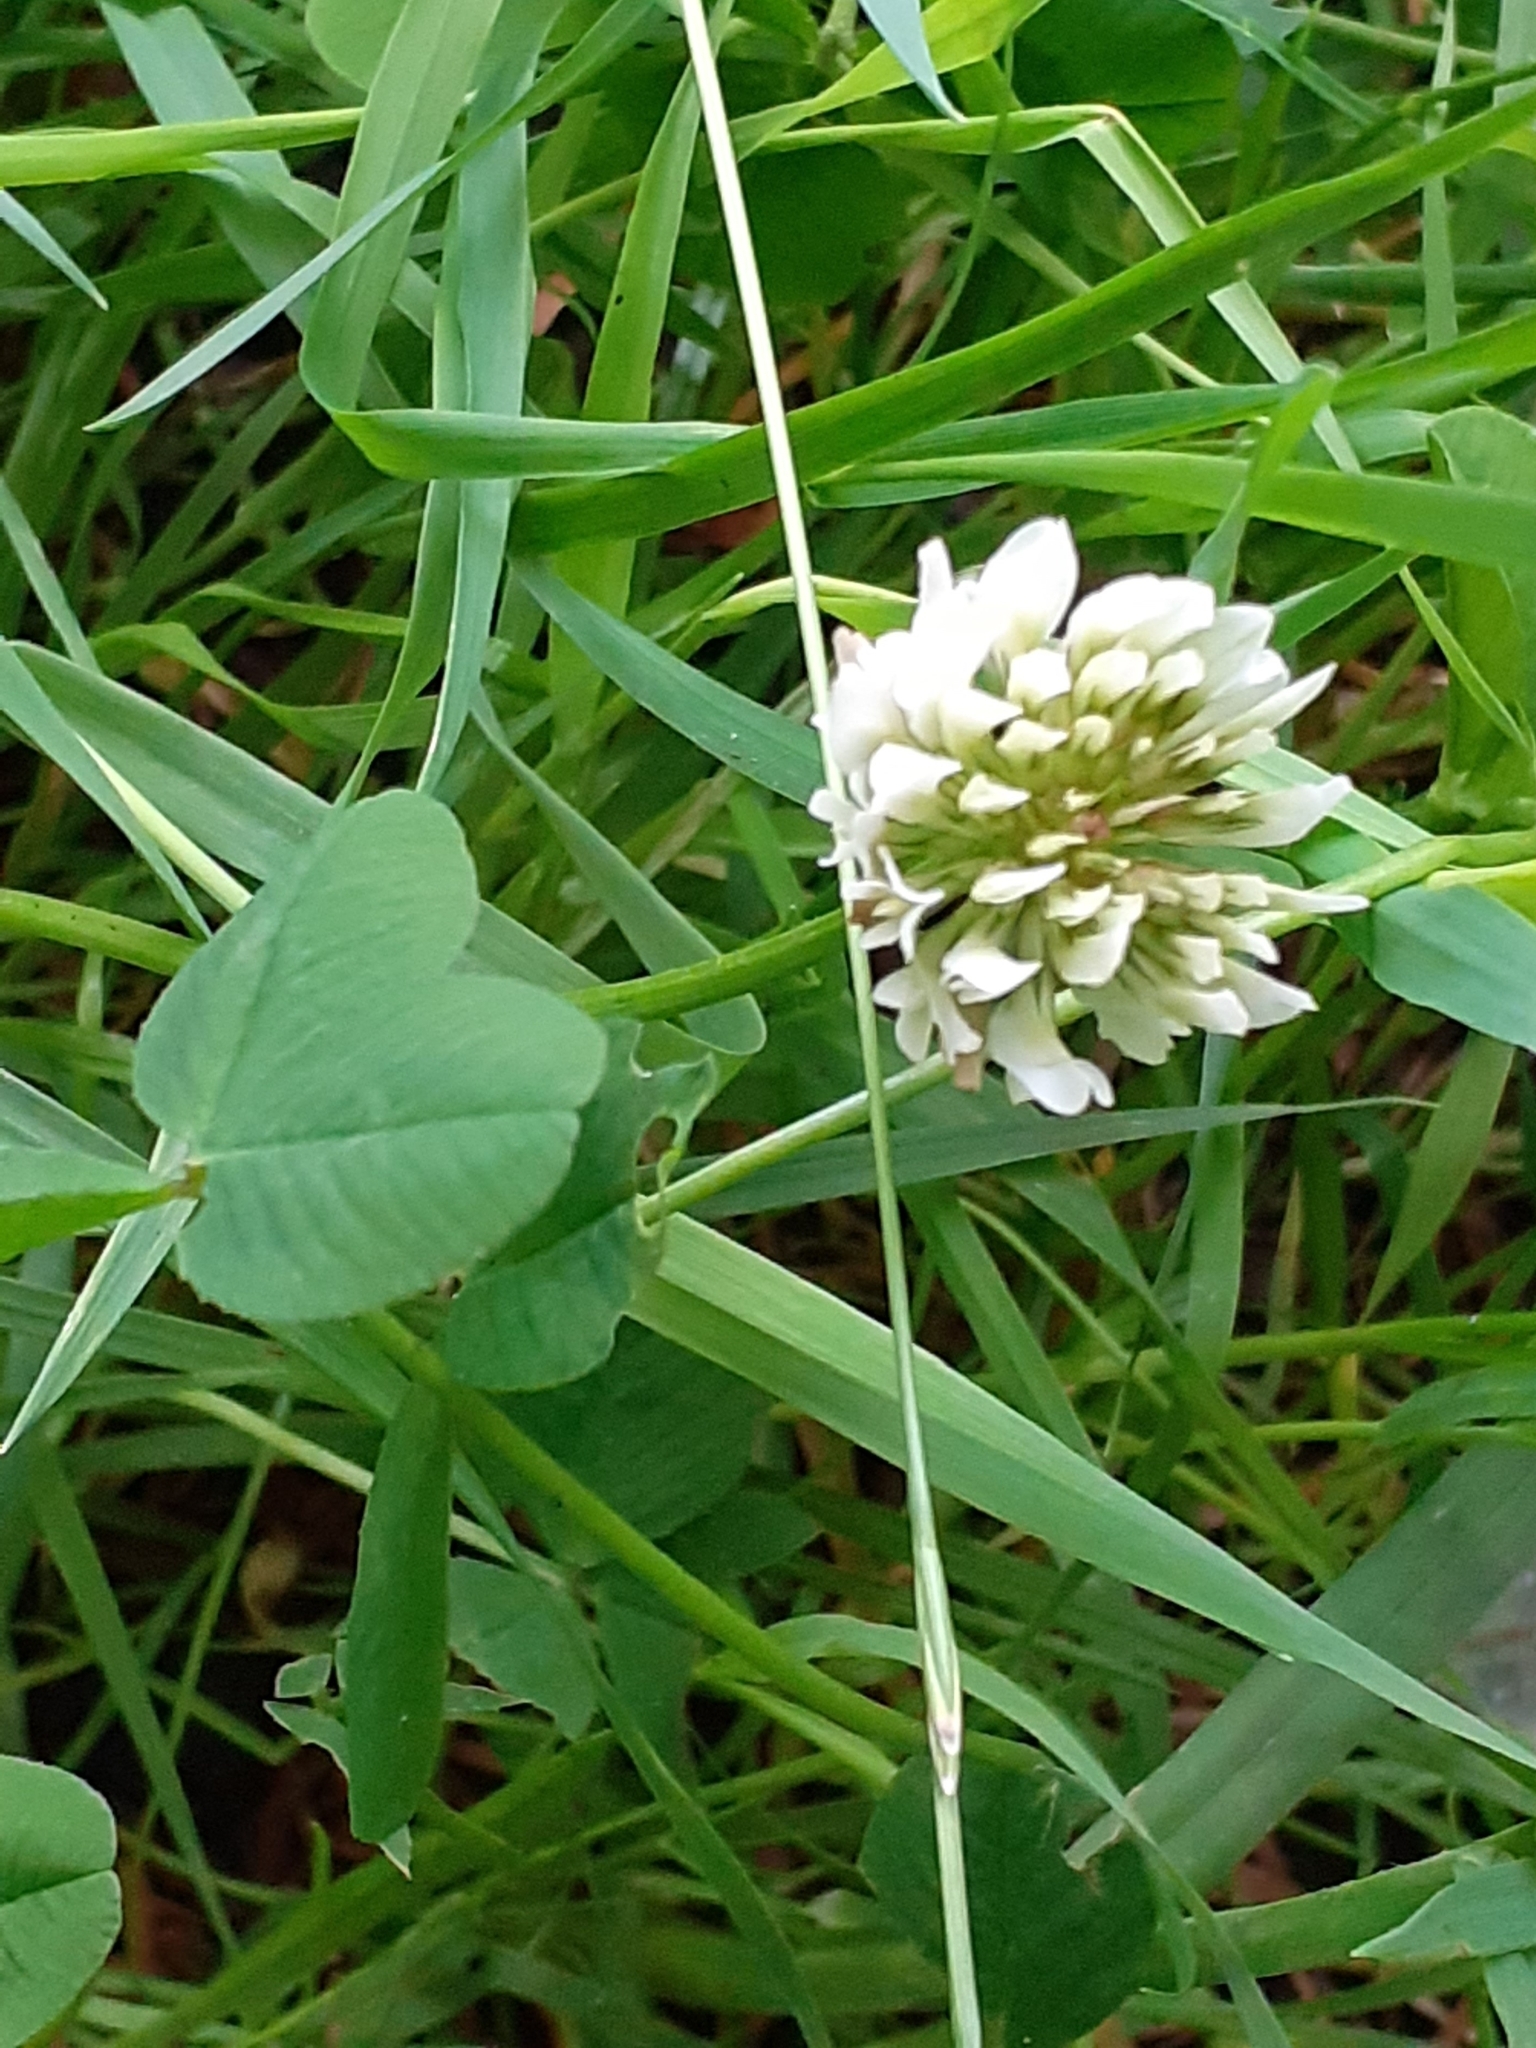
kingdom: Plantae
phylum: Tracheophyta
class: Magnoliopsida
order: Fabales
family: Fabaceae
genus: Trifolium
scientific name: Trifolium repens
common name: White clover
